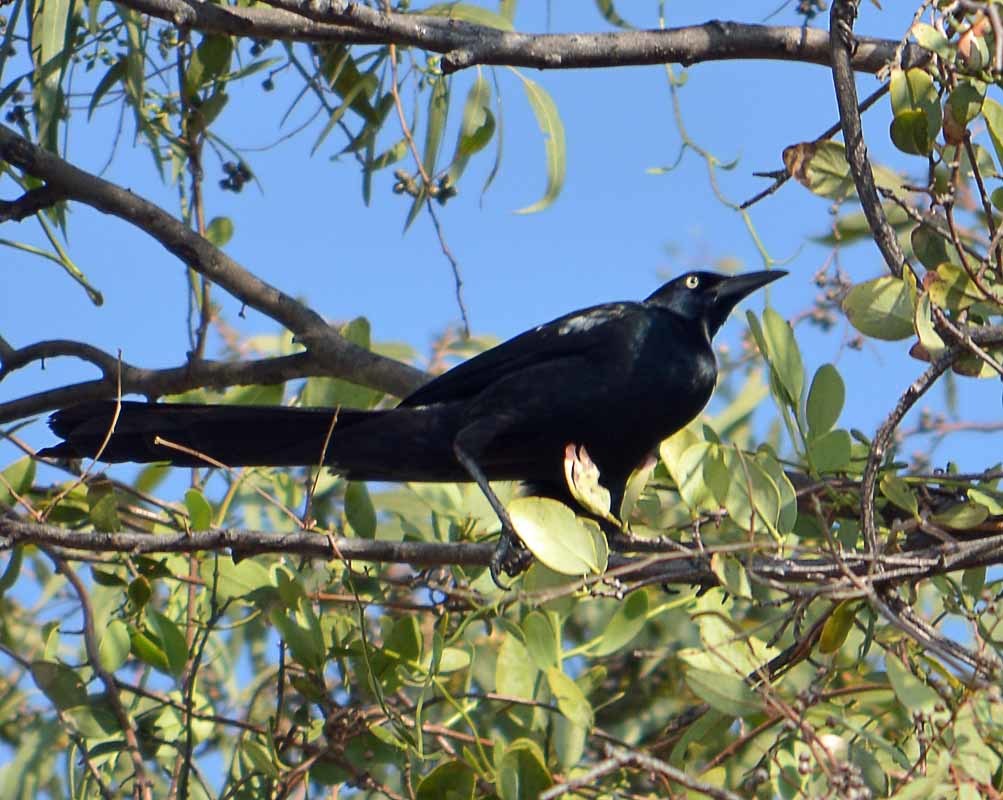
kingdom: Animalia
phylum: Chordata
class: Aves
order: Passeriformes
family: Icteridae
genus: Quiscalus
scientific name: Quiscalus mexicanus
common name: Great-tailed grackle
